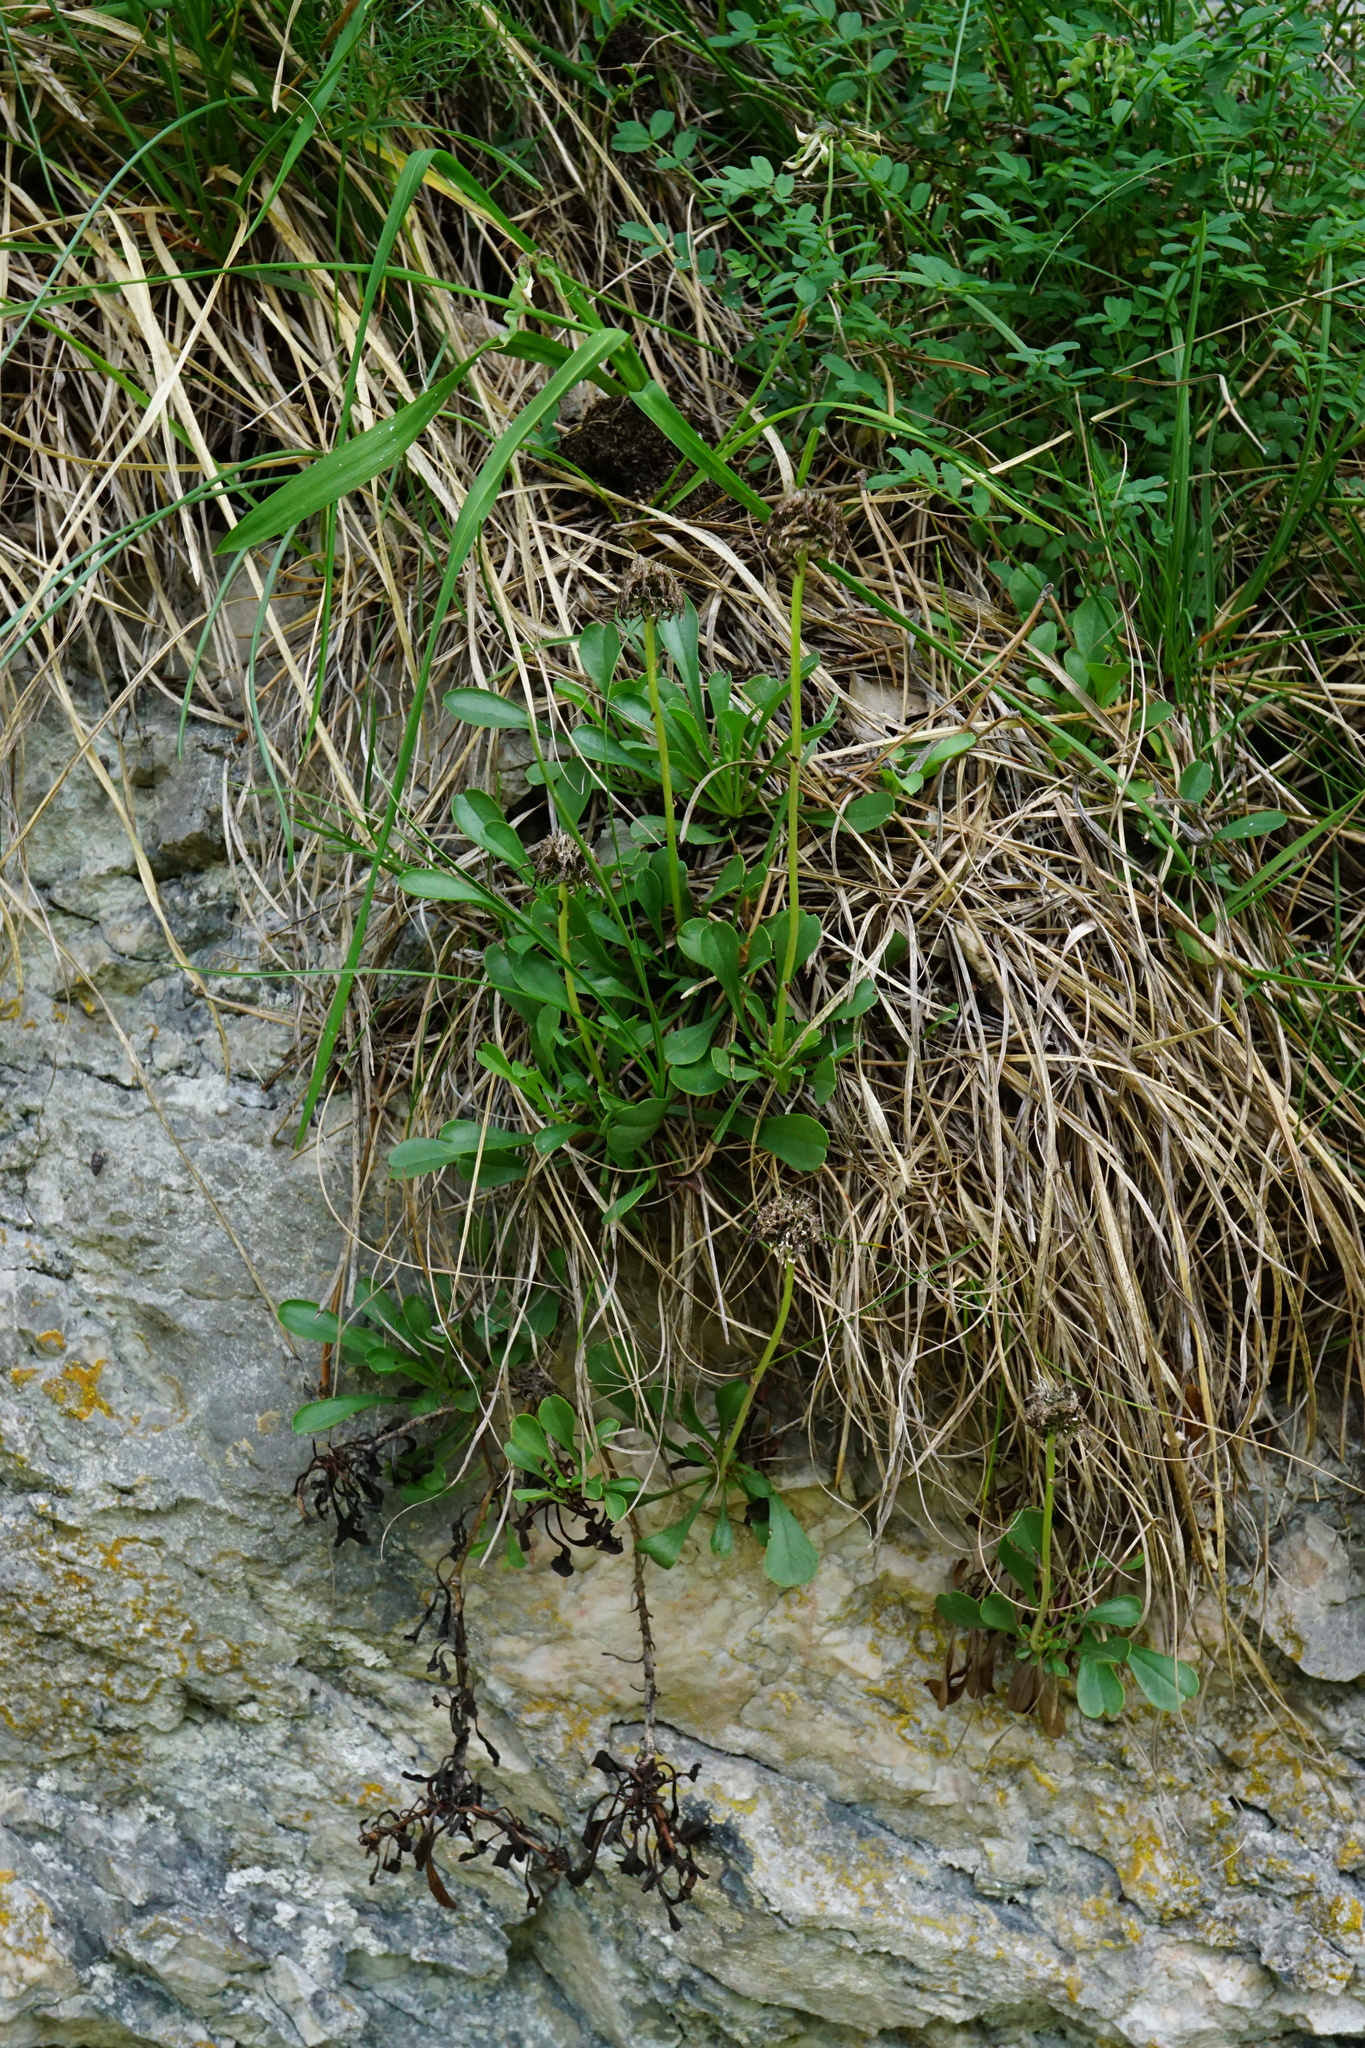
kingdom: Plantae
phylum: Tracheophyta
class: Magnoliopsida
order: Lamiales
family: Plantaginaceae
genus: Globularia
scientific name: Globularia cordifolia
